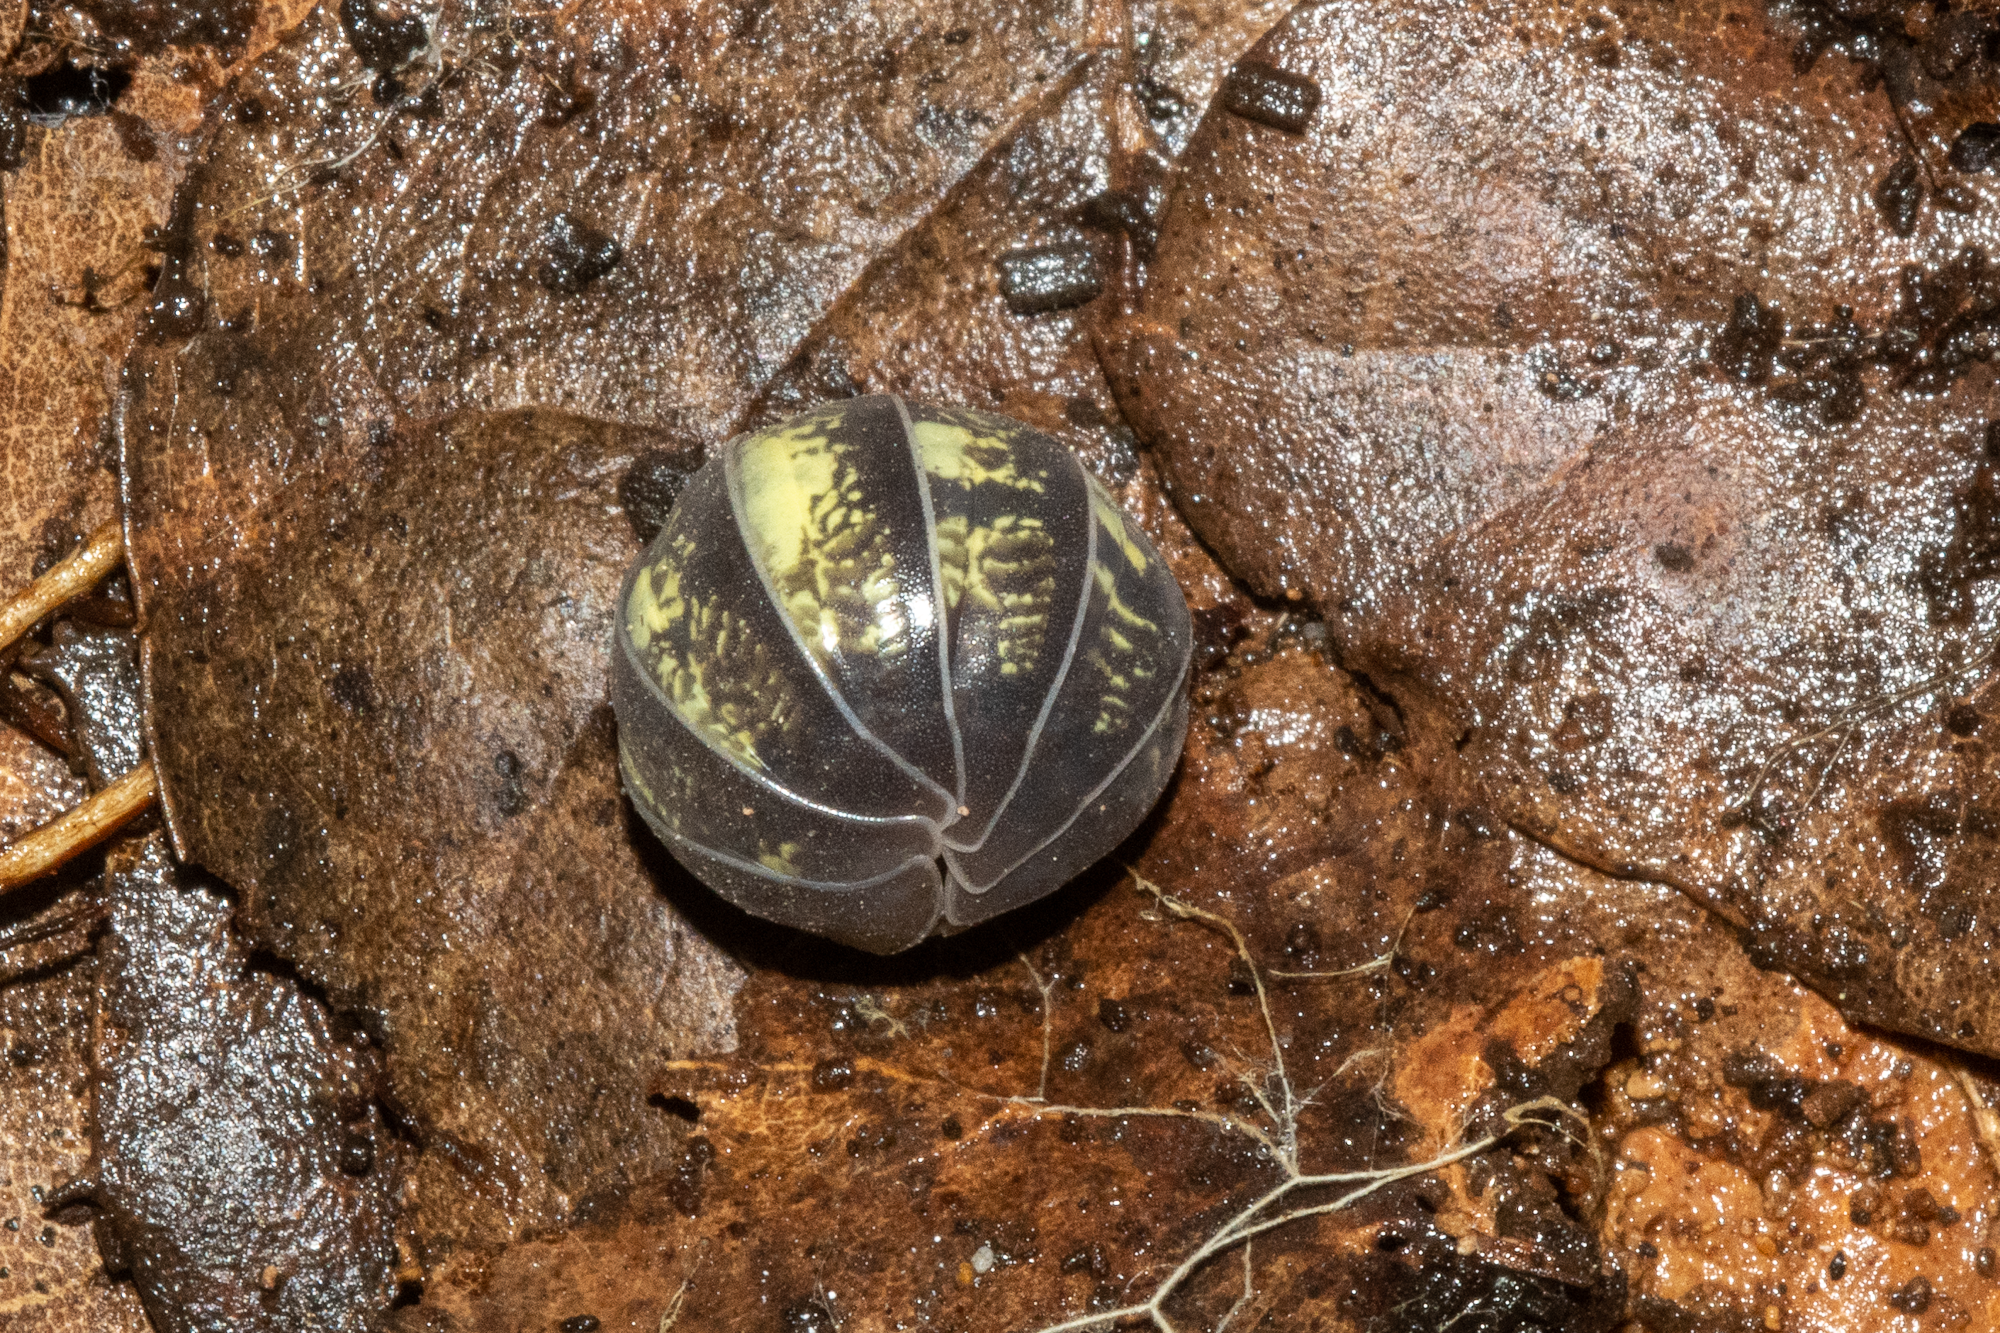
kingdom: Animalia
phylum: Arthropoda
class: Malacostraca
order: Isopoda
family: Armadillidiidae
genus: Armadillidium
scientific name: Armadillidium vulgare
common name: Common pill woodlouse
